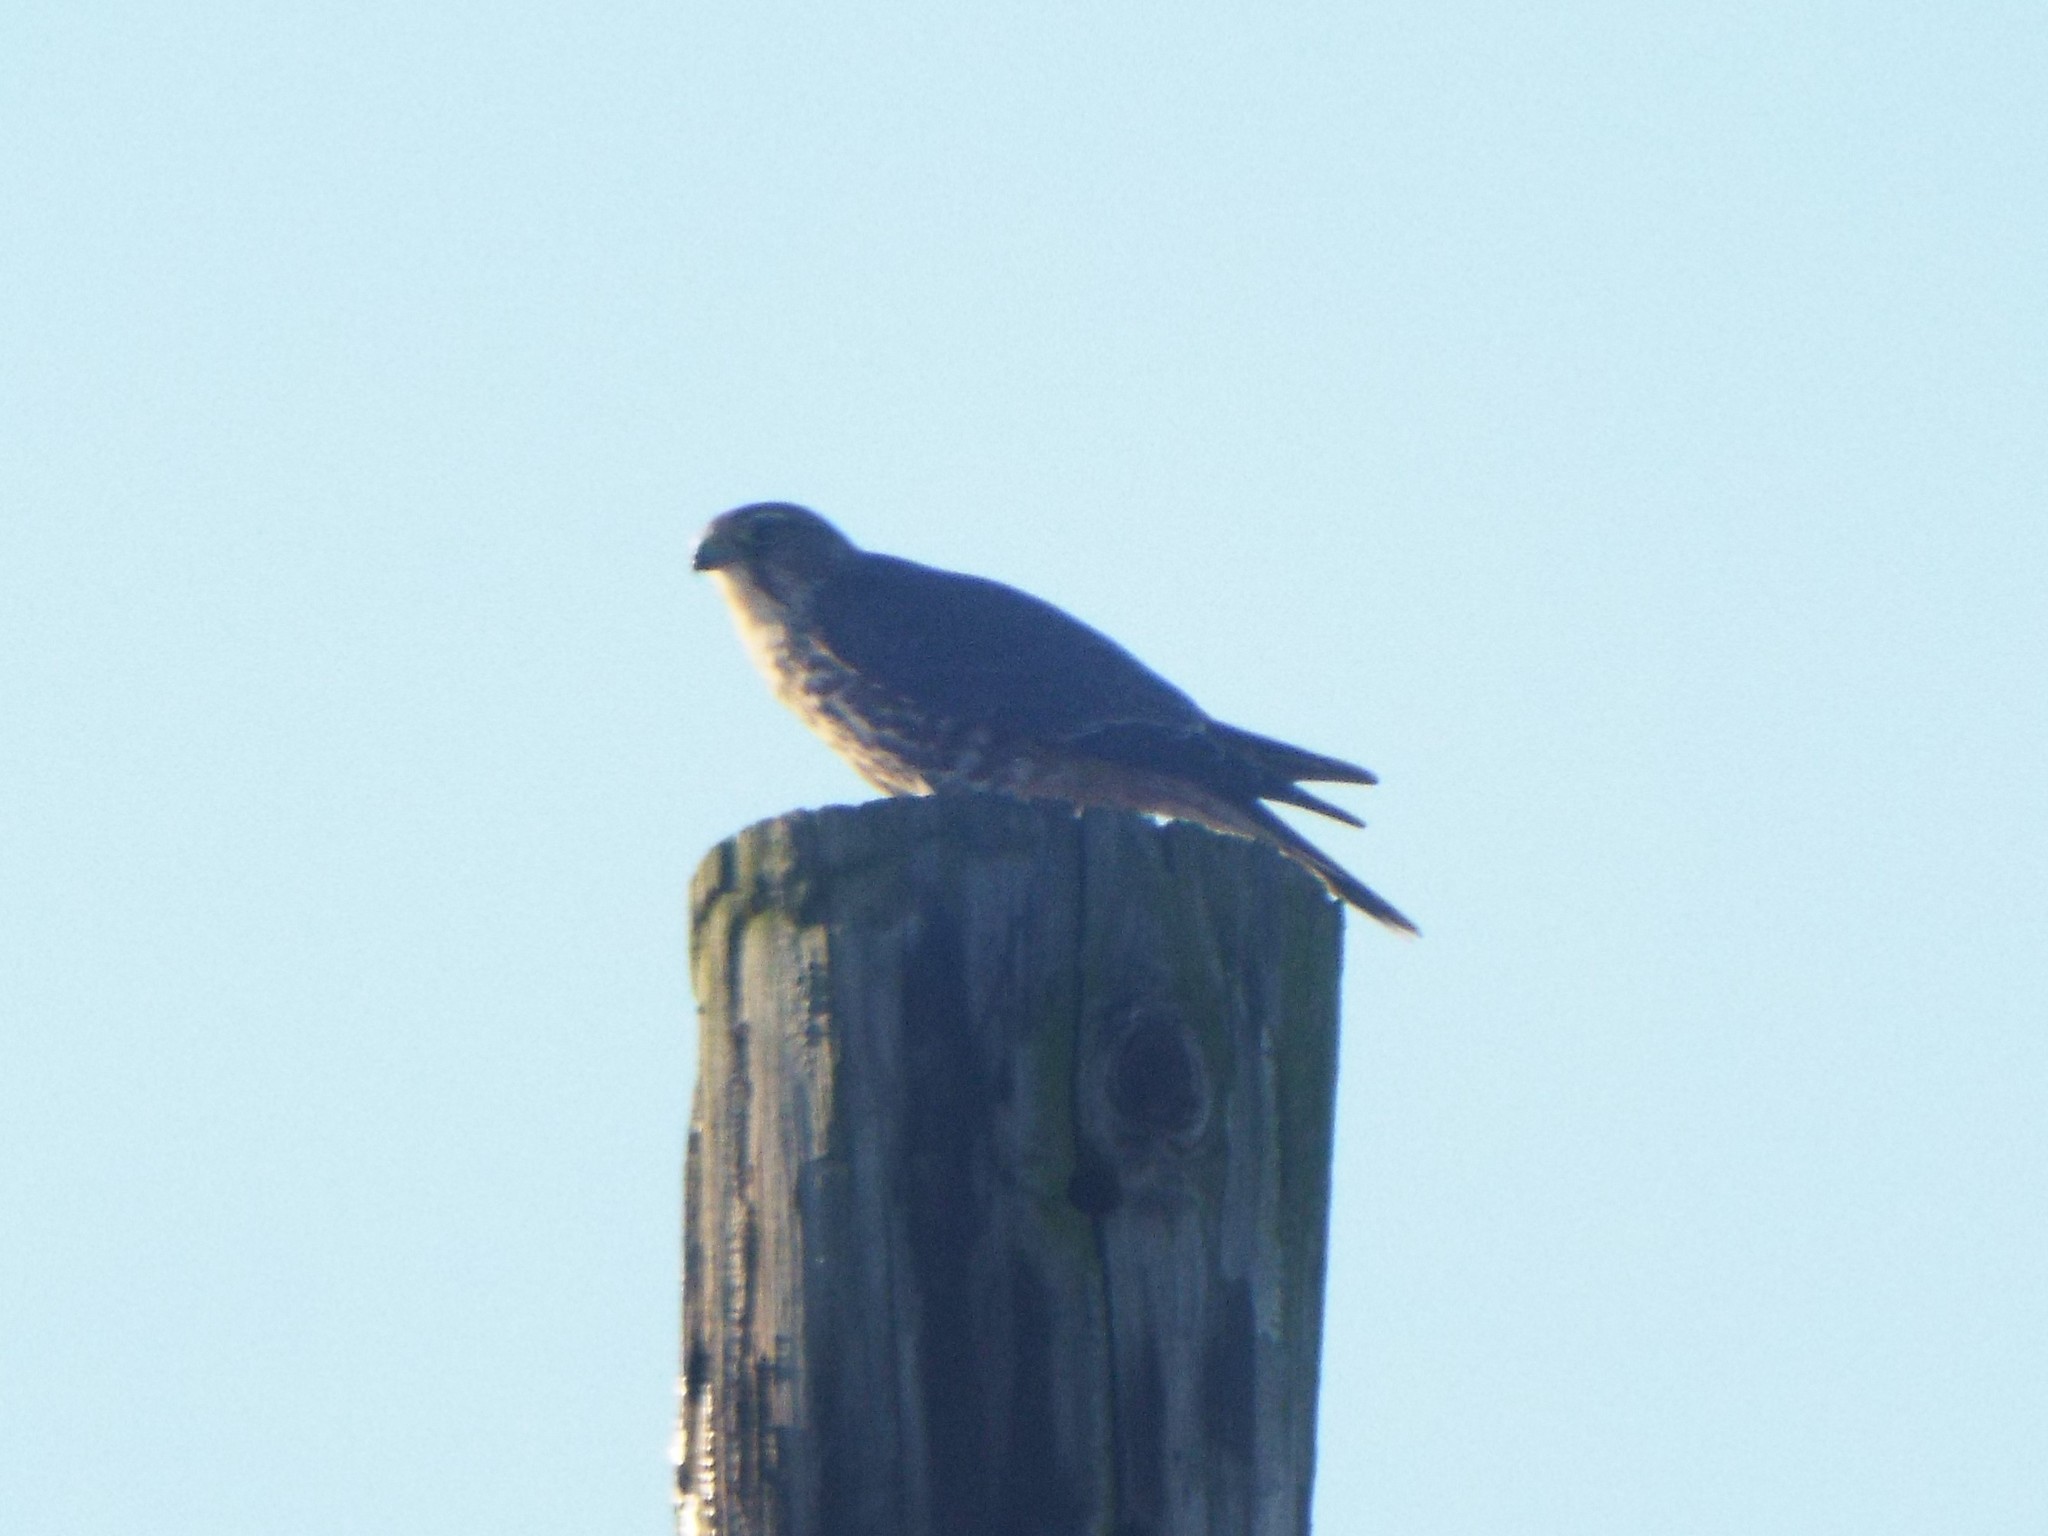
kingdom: Animalia
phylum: Chordata
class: Aves
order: Falconiformes
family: Falconidae
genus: Falco
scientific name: Falco columbarius
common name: Merlin
